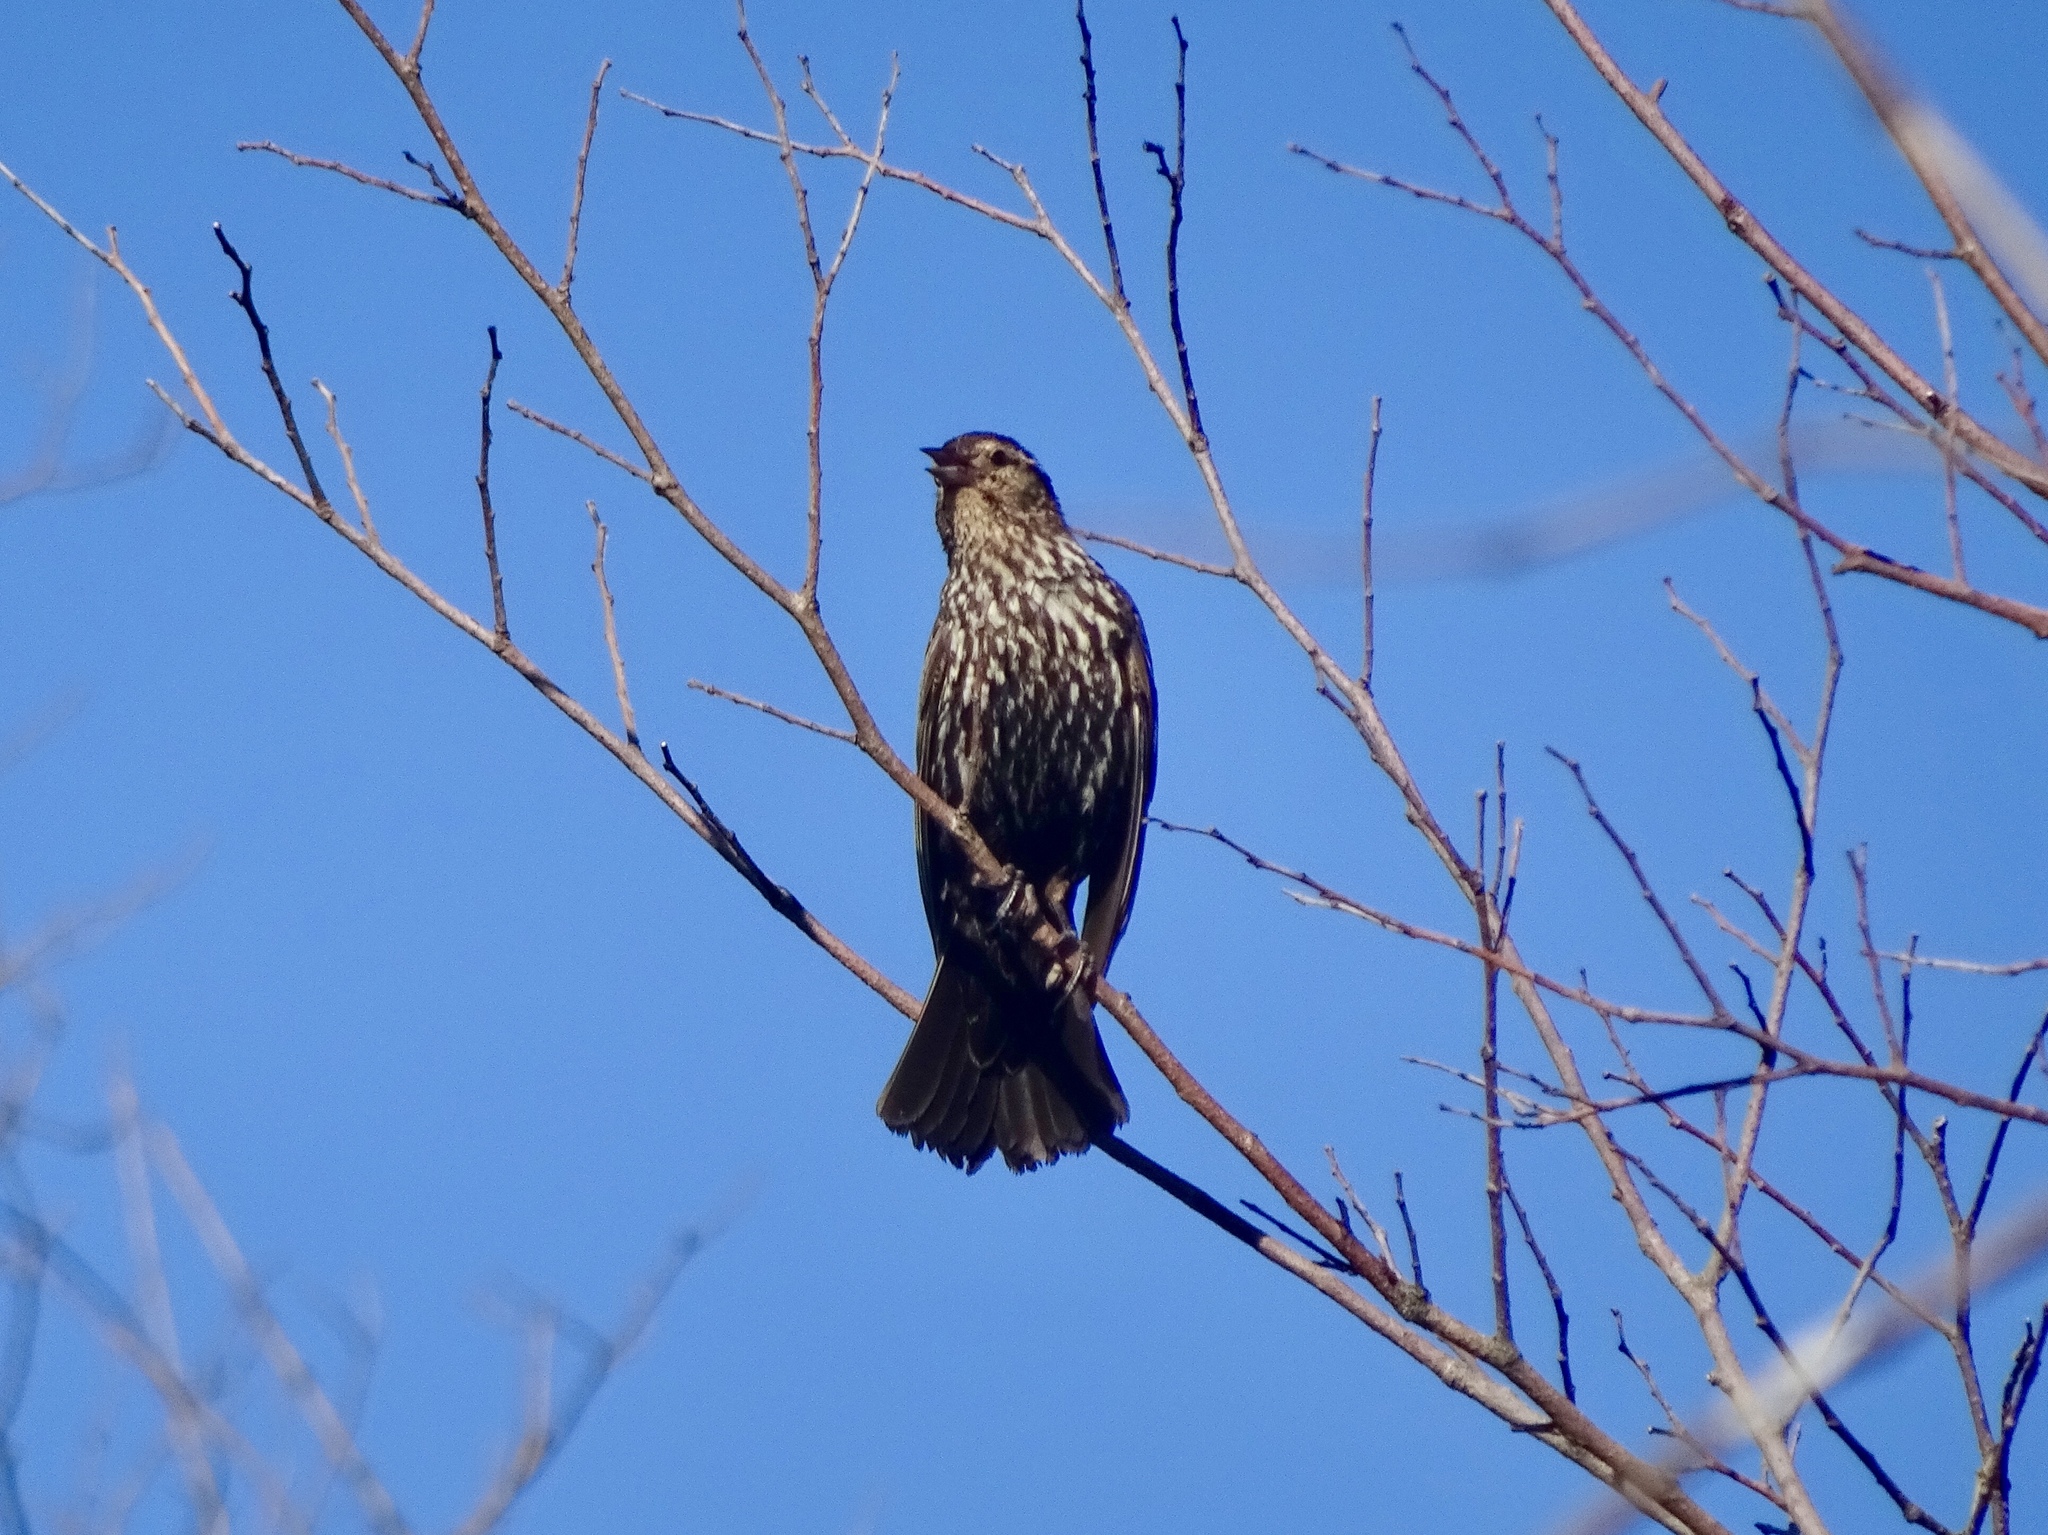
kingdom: Animalia
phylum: Chordata
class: Aves
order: Passeriformes
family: Icteridae
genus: Agelaius
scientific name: Agelaius phoeniceus
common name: Red-winged blackbird
